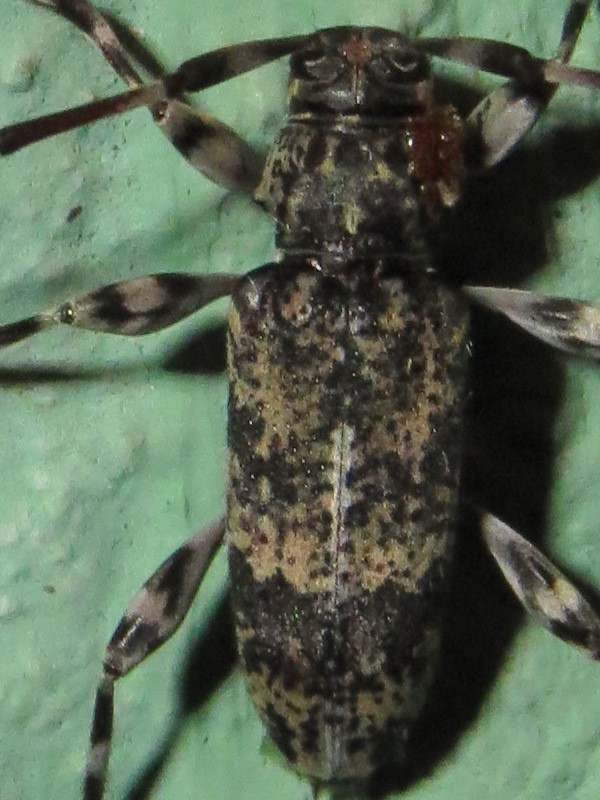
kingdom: Animalia
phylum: Arthropoda
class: Insecta
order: Coleoptera
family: Cerambycidae
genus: Graphisurus
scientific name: Graphisurus fasciatus
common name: Banded graphisurus
